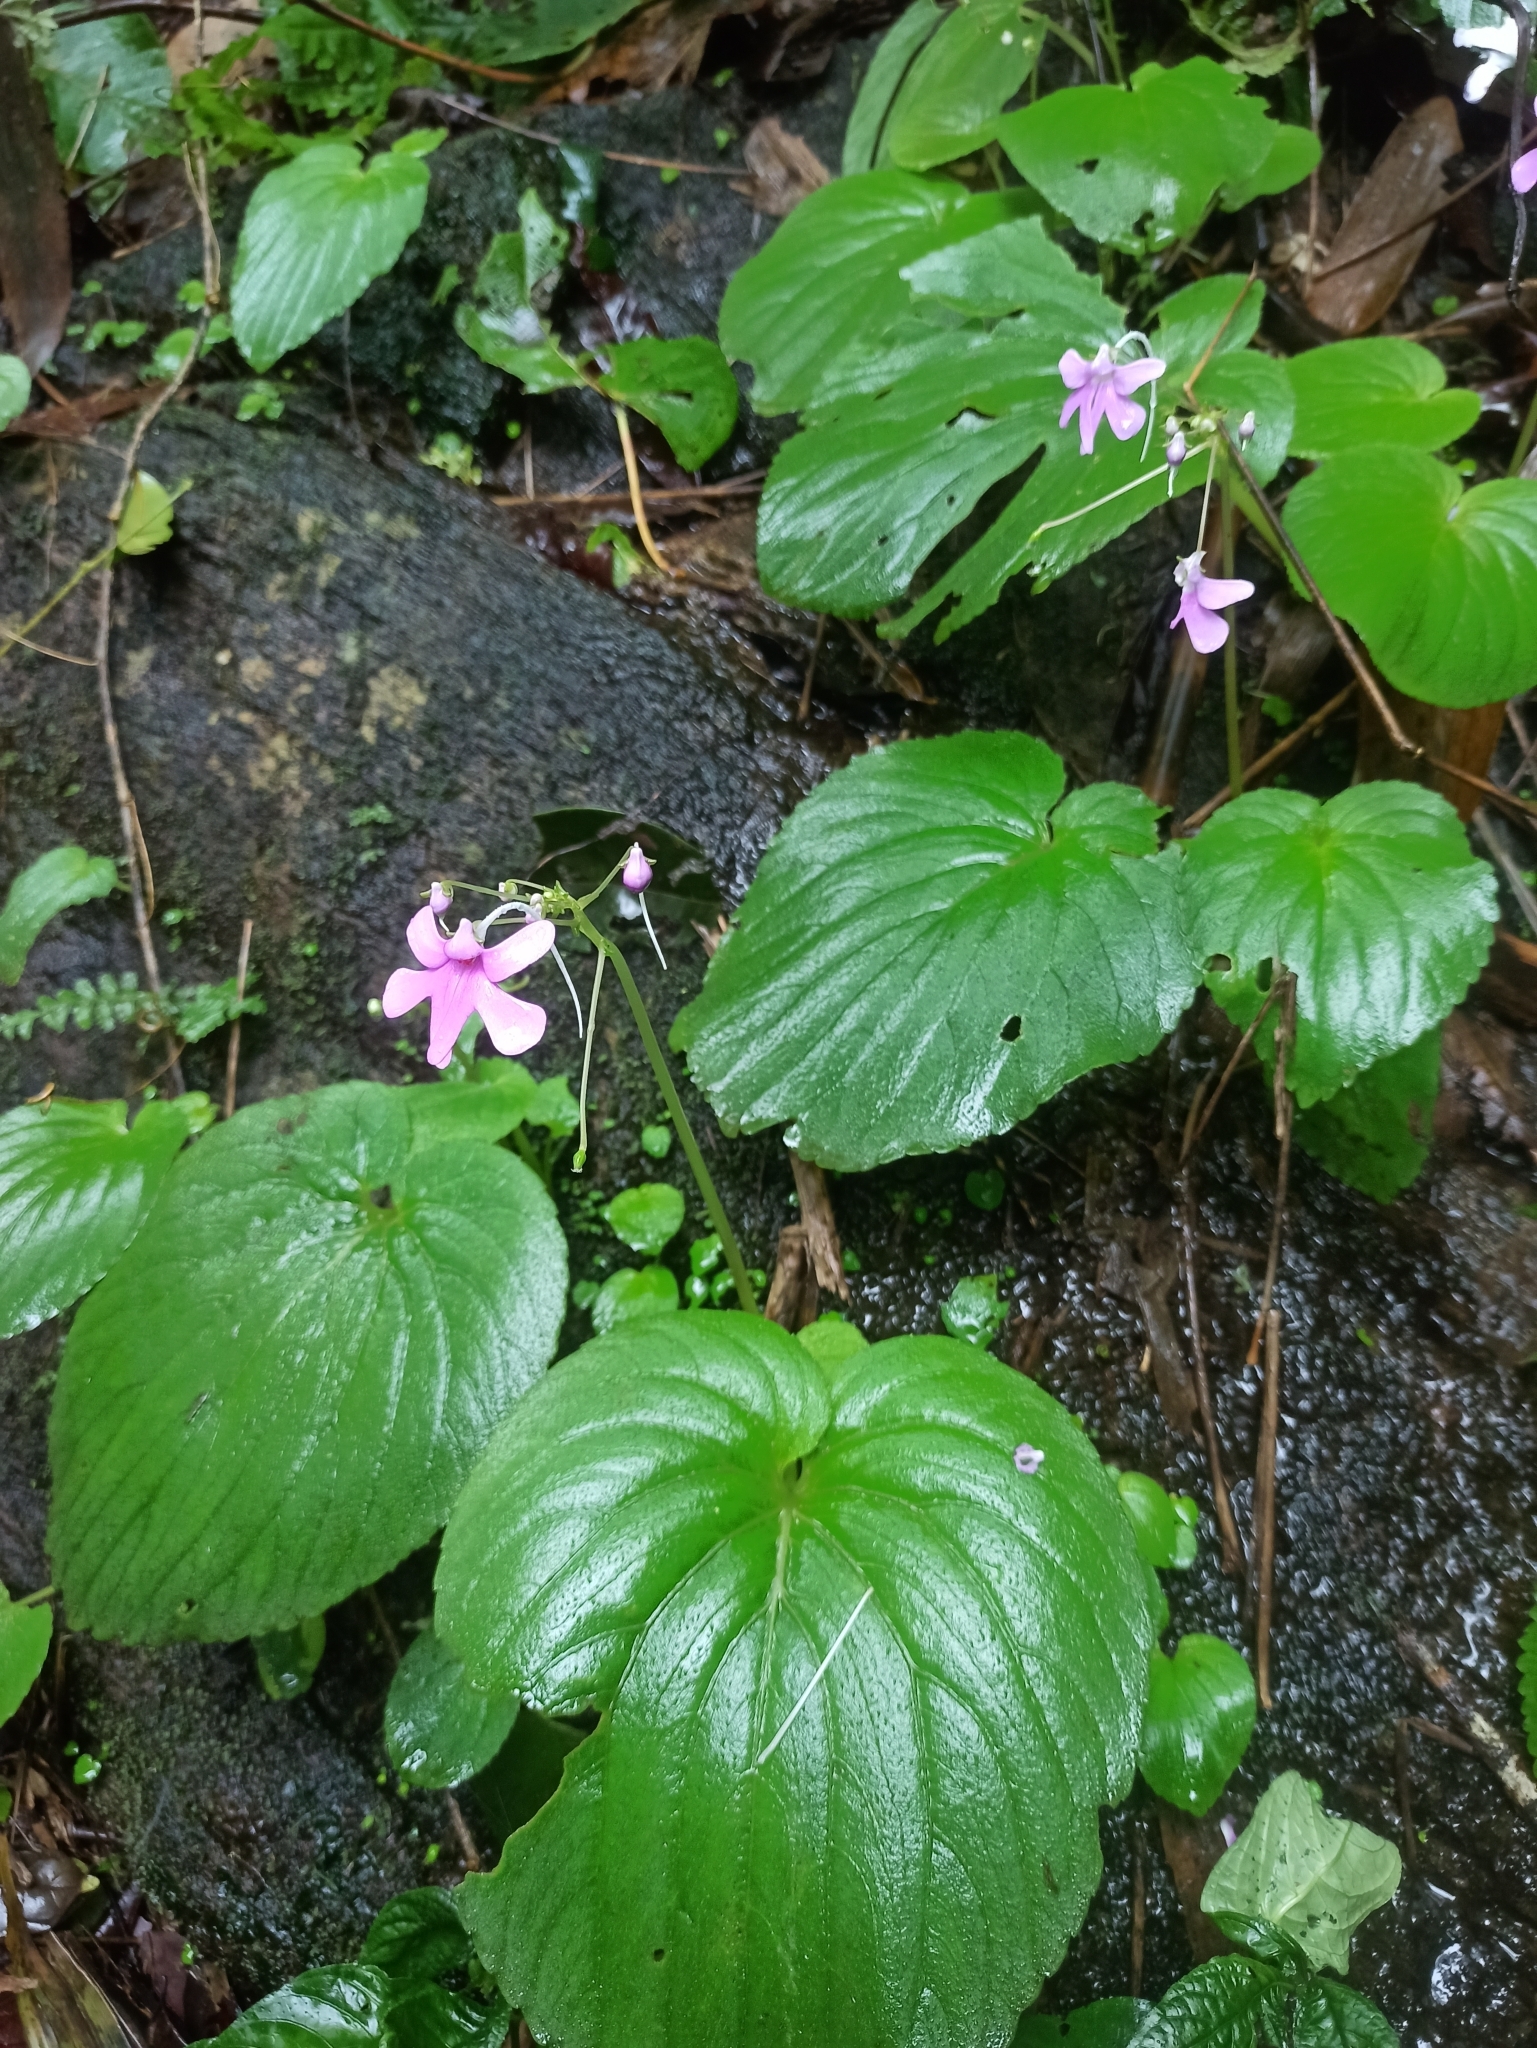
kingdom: Plantae
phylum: Tracheophyta
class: Magnoliopsida
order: Ericales
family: Balsaminaceae
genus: Impatiens
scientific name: Impatiens scapiflora
